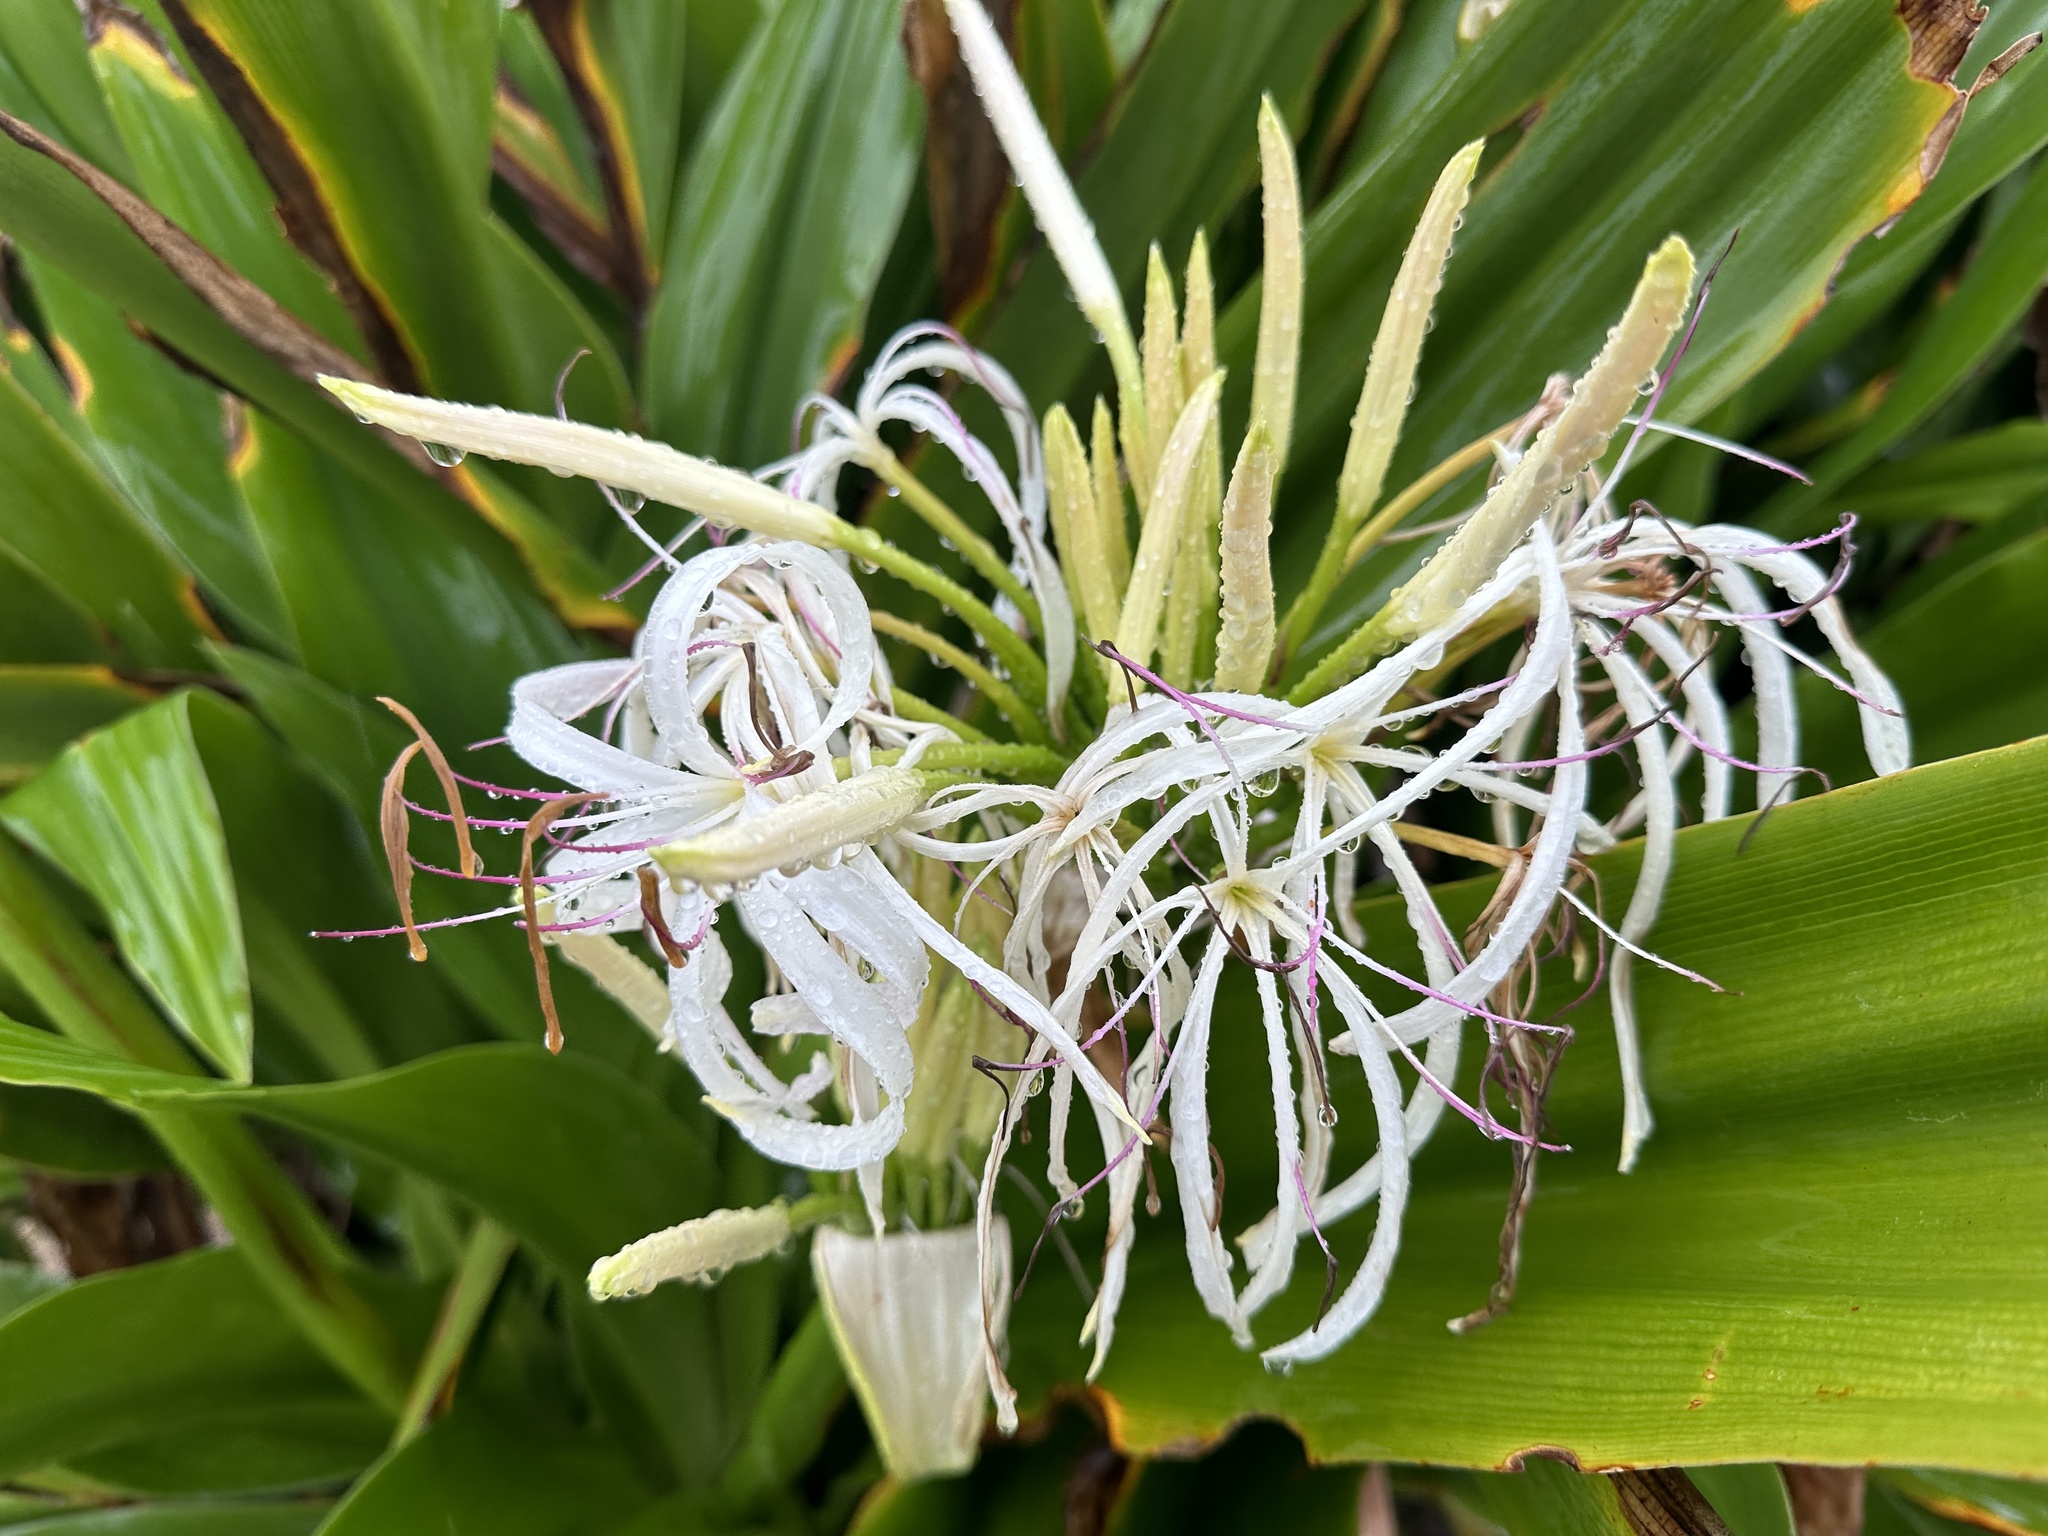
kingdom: Plantae
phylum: Tracheophyta
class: Liliopsida
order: Asparagales
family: Amaryllidaceae
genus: Crinum
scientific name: Crinum asiaticum
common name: Poisonbulb
